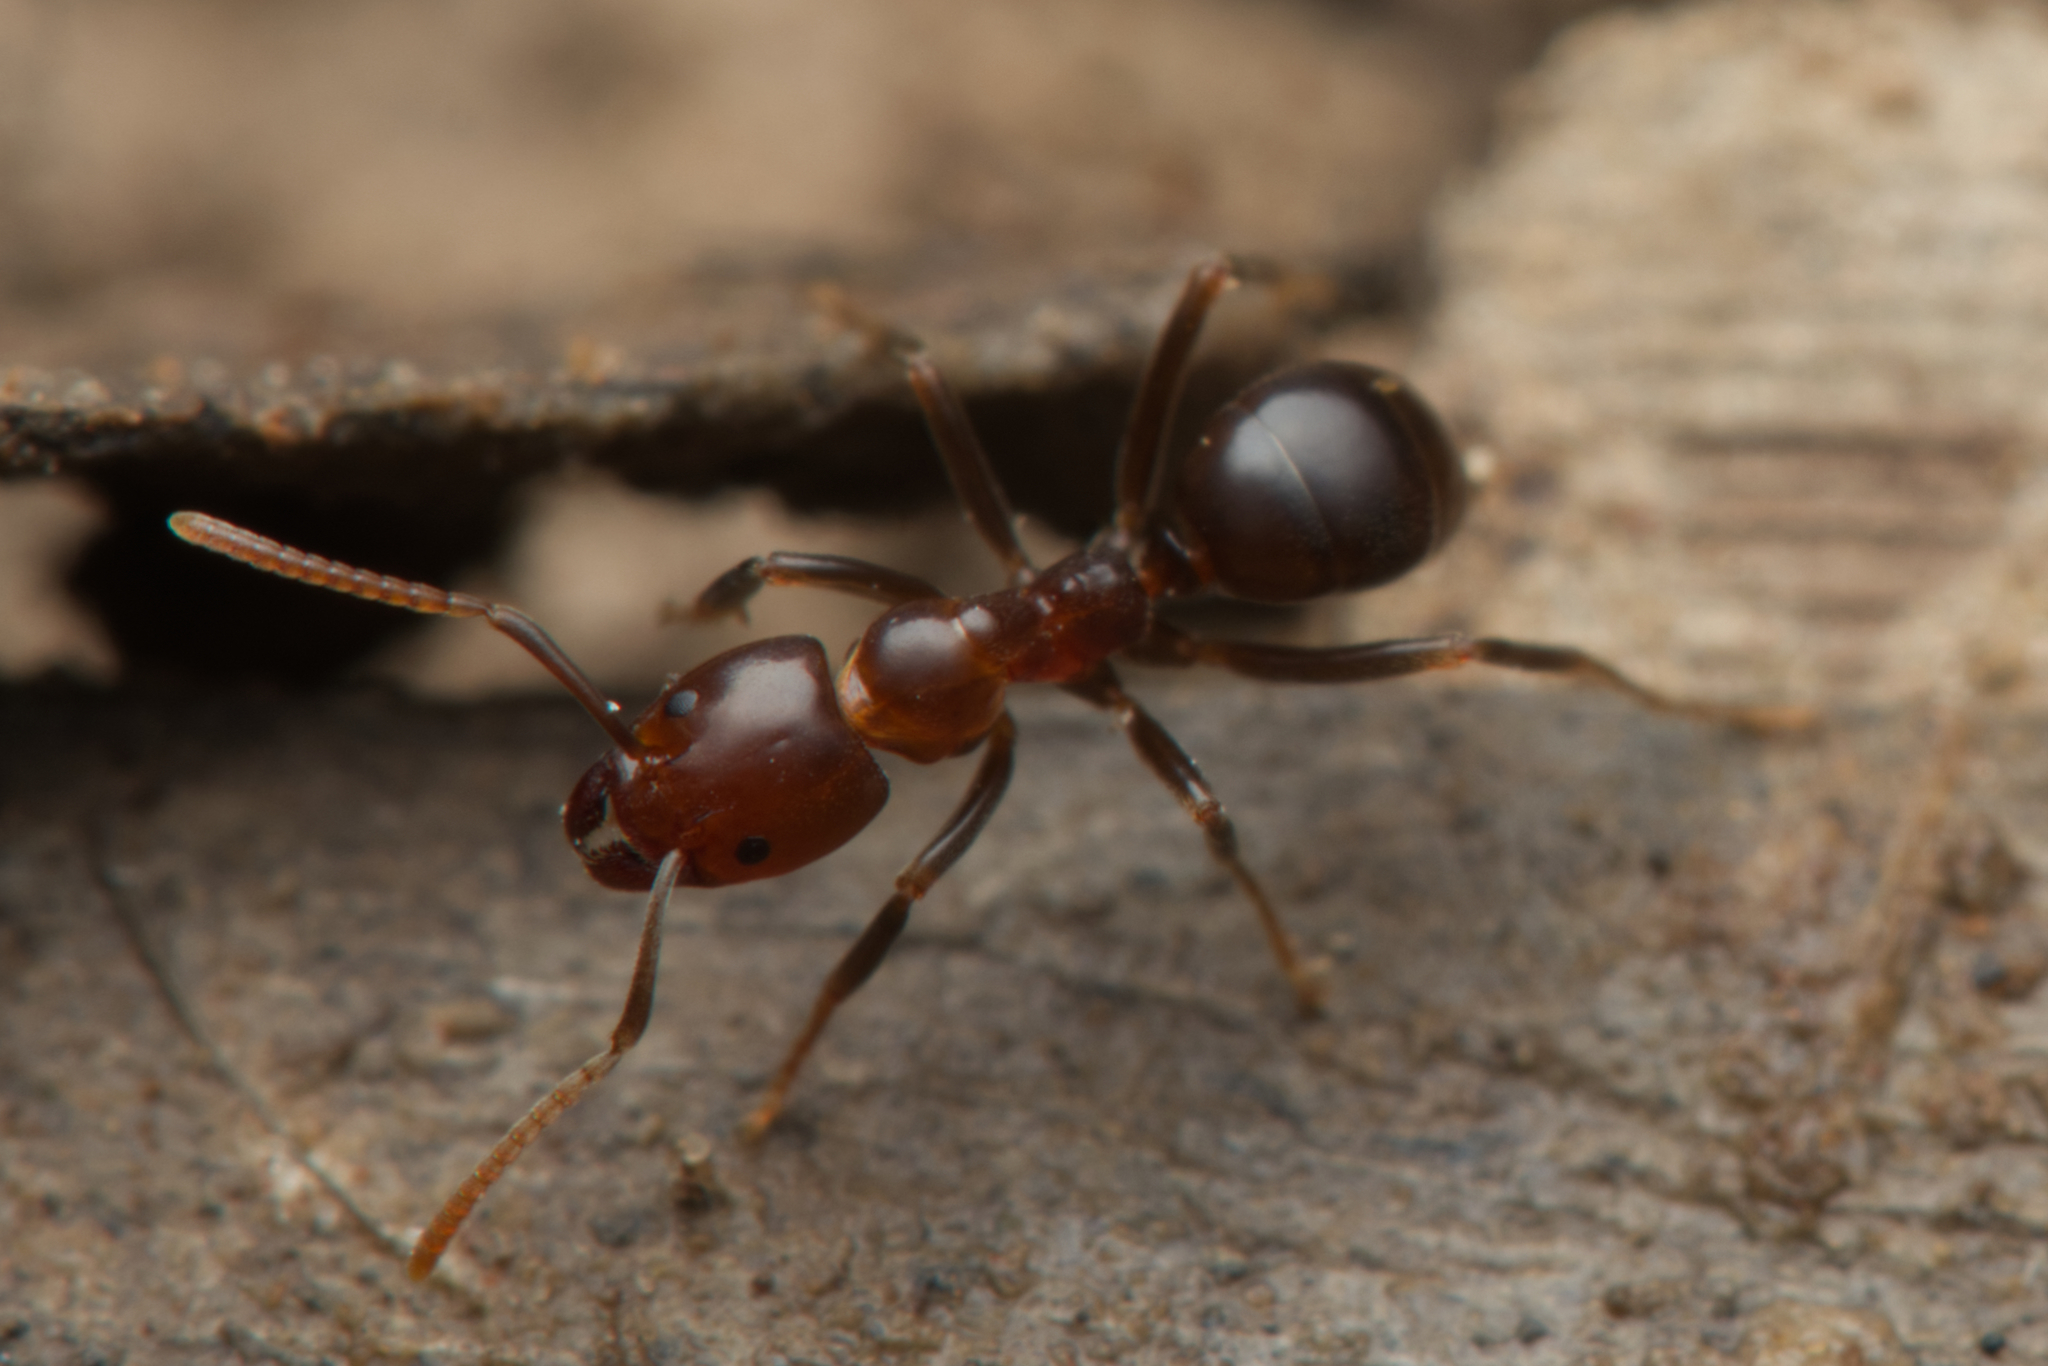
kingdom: Animalia
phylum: Arthropoda
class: Insecta
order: Hymenoptera
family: Formicidae
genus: Papyrius
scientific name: Papyrius nitidus
